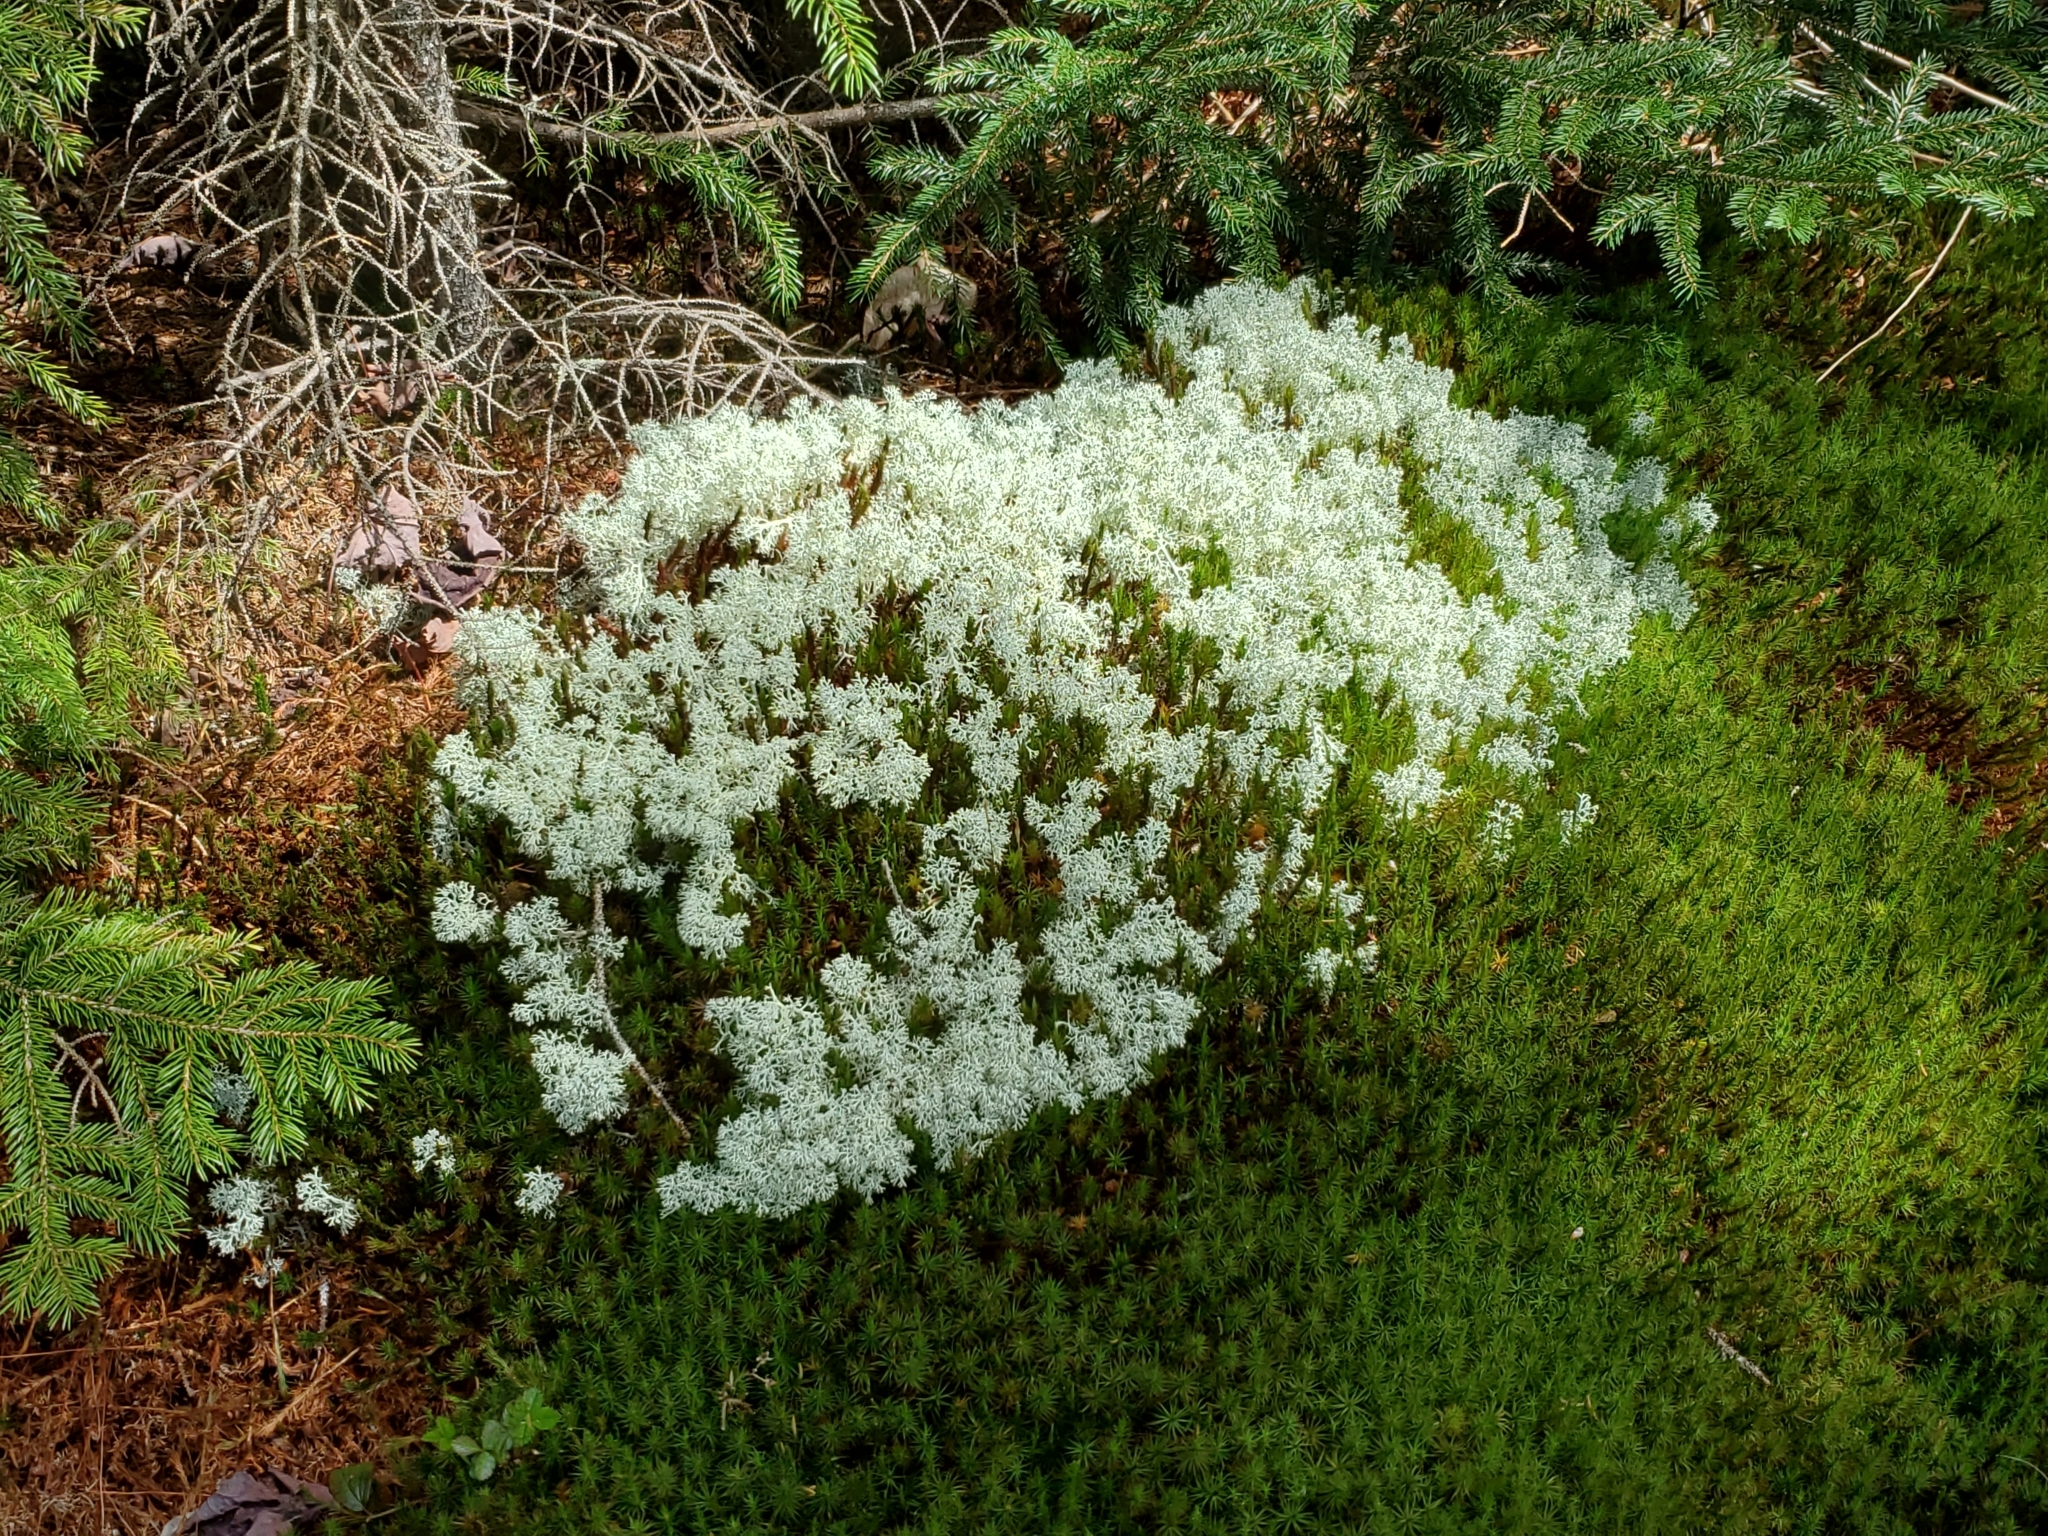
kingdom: Fungi
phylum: Ascomycota
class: Lecanoromycetes
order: Lecanorales
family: Cladoniaceae
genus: Cladonia
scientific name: Cladonia rangiferina
